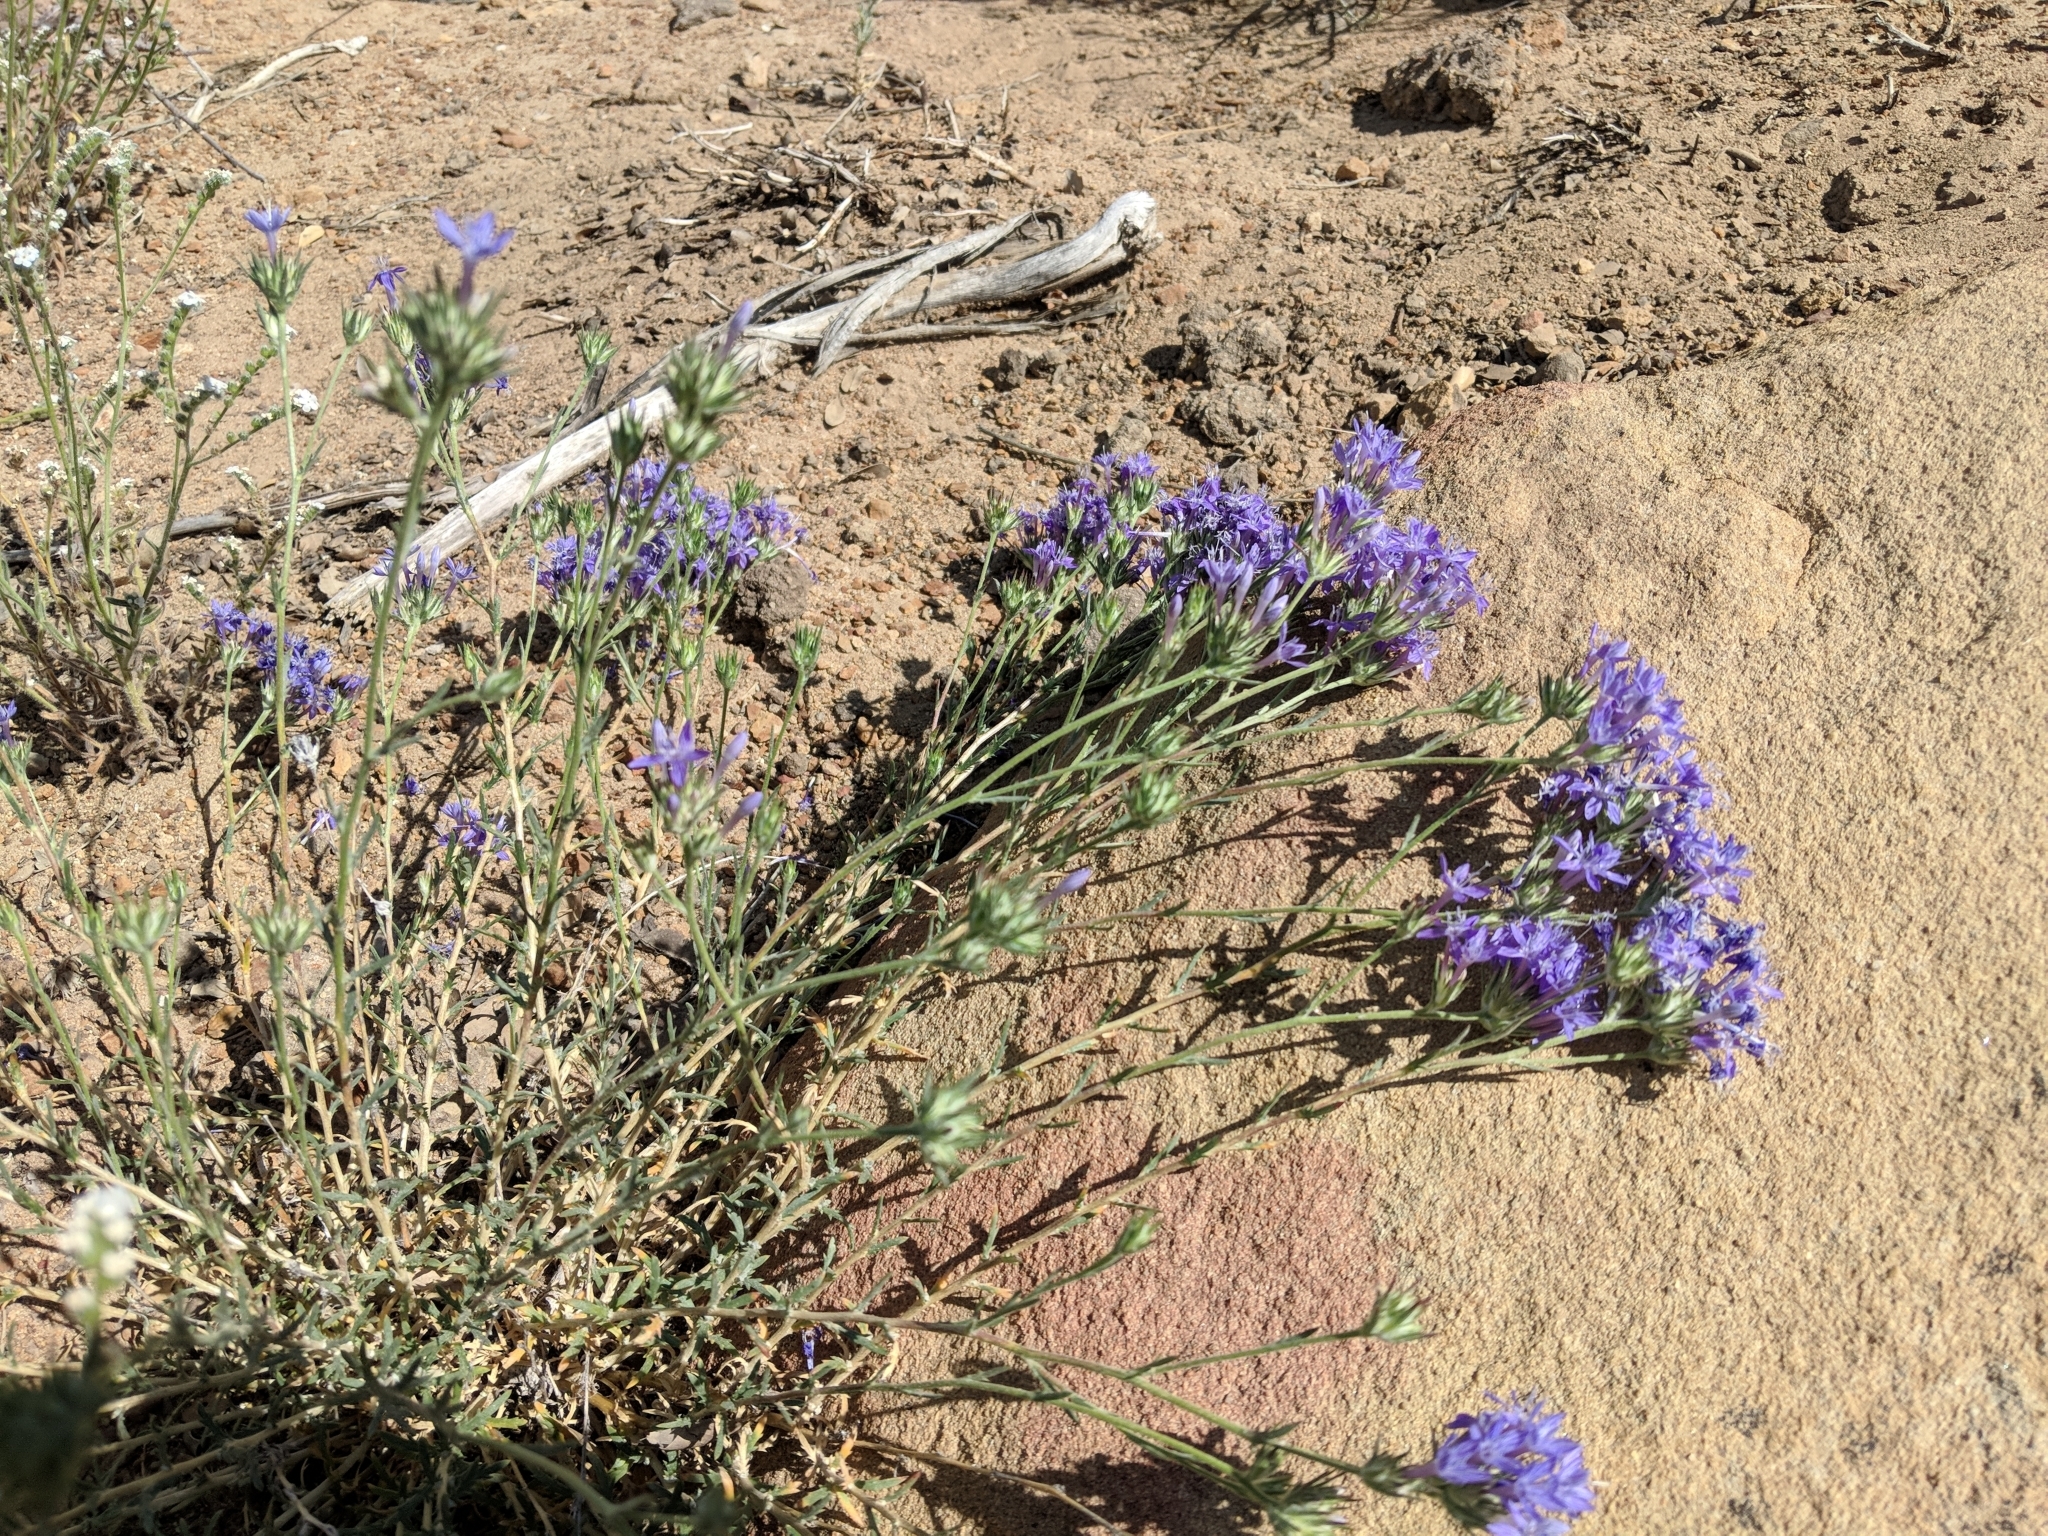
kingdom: Plantae
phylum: Tracheophyta
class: Magnoliopsida
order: Ericales
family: Polemoniaceae
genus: Eriastrum
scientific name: Eriastrum densifolium
